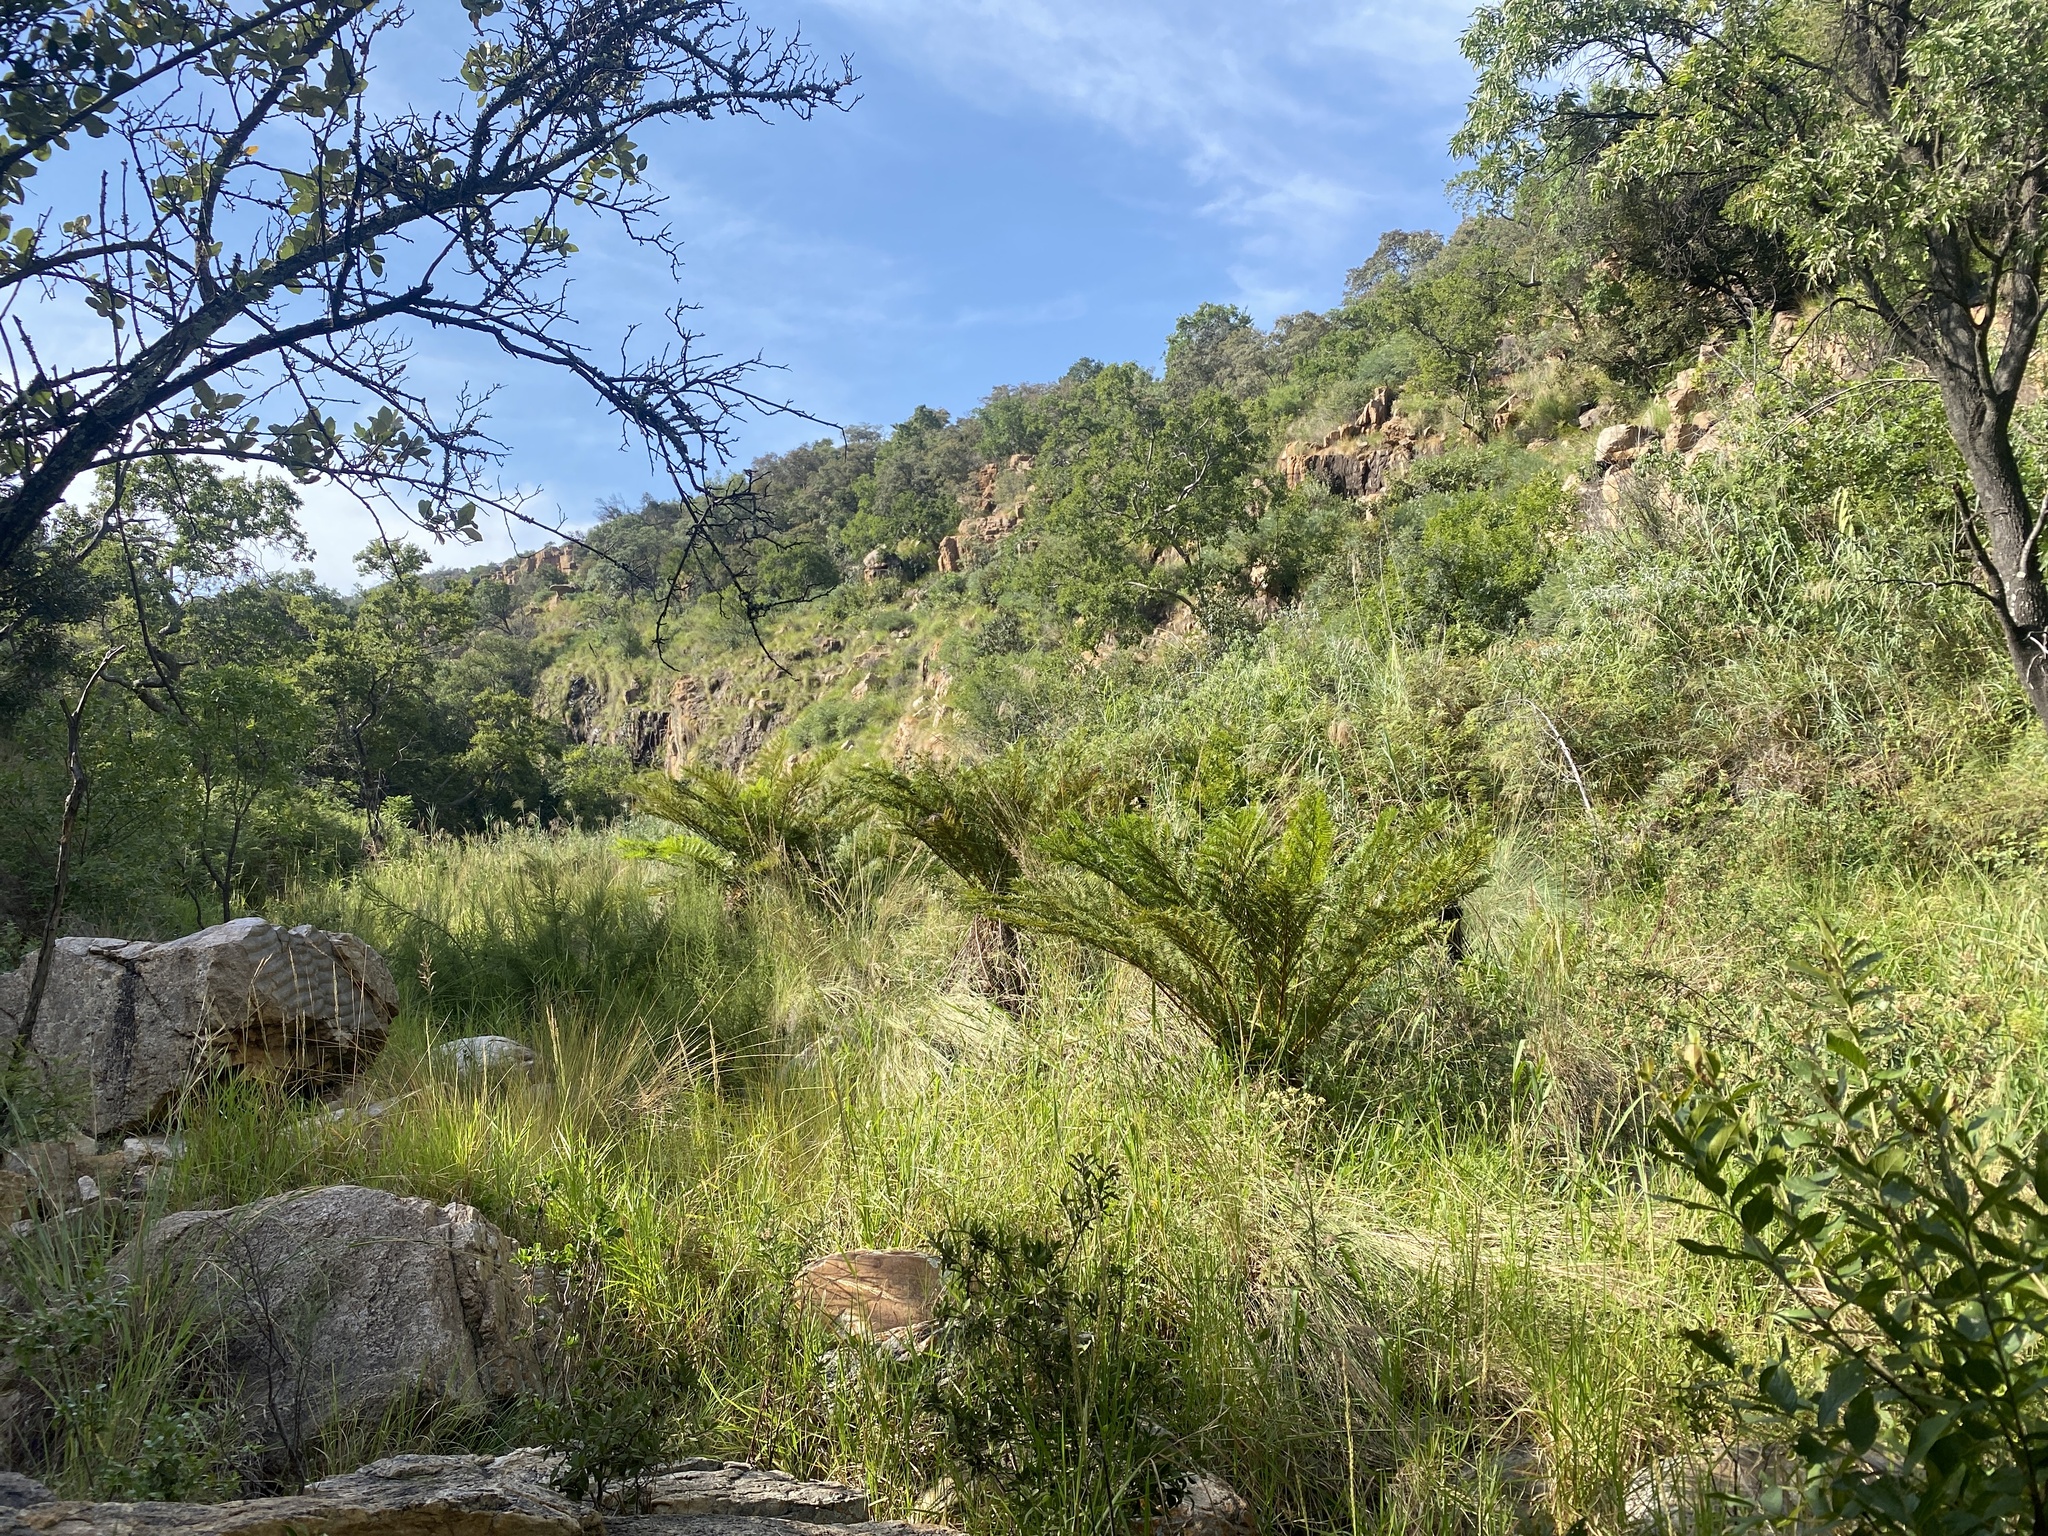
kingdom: Plantae
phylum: Tracheophyta
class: Polypodiopsida
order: Cyatheales
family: Cyatheaceae
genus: Alsophila
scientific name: Alsophila dregei
